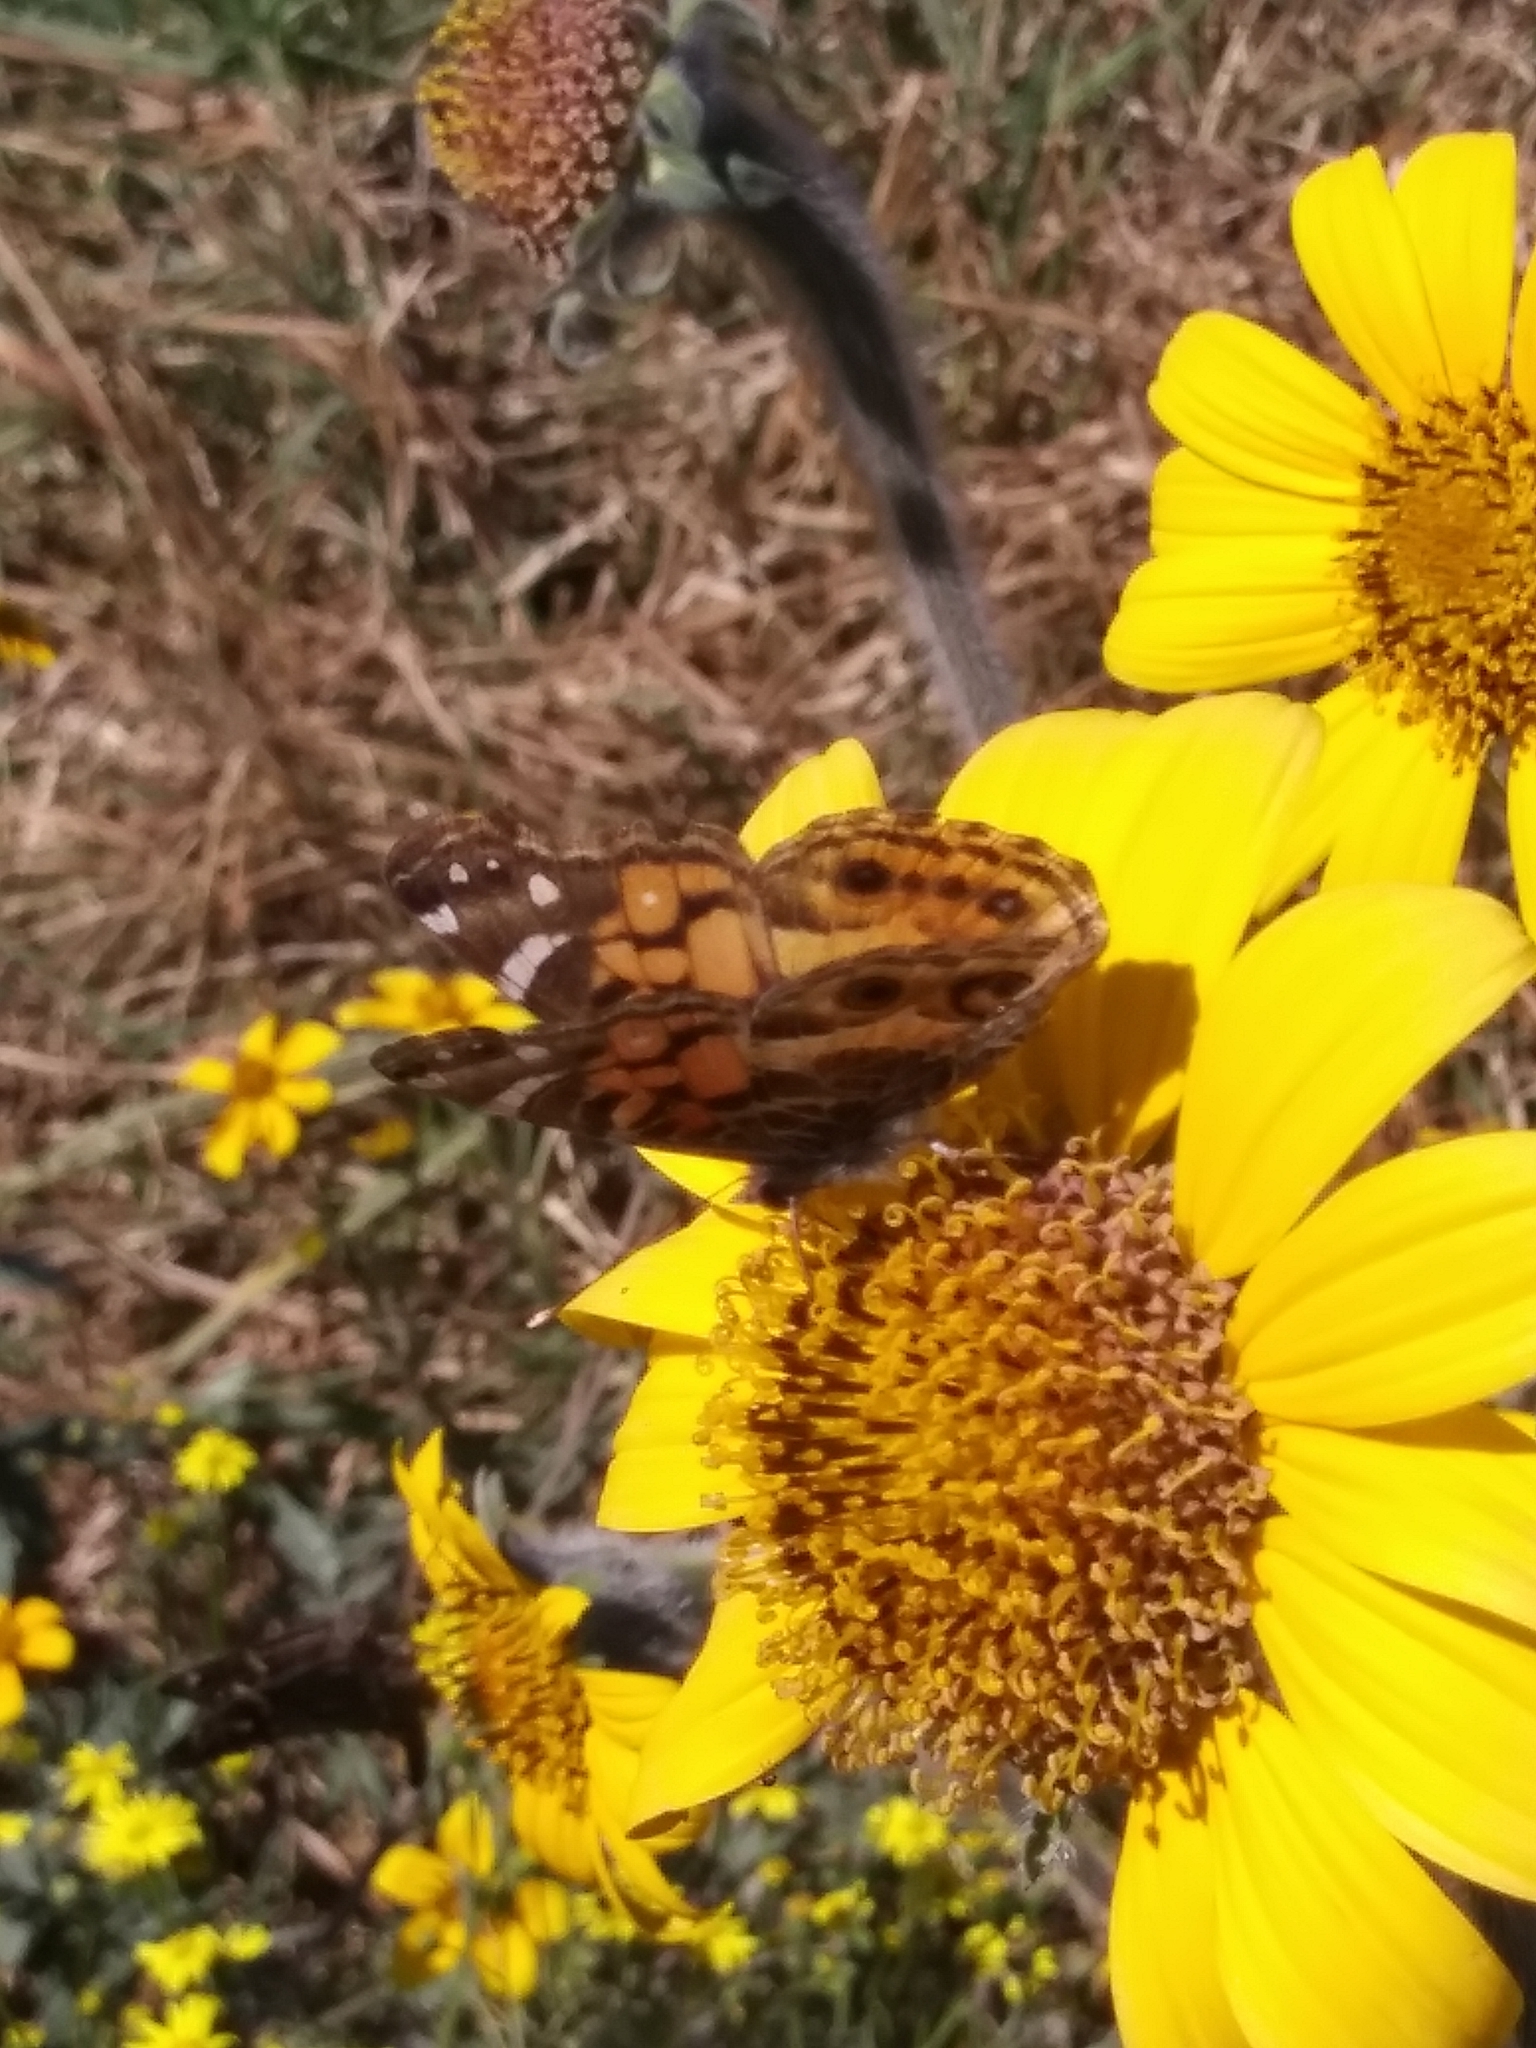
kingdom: Animalia
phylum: Arthropoda
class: Insecta
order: Lepidoptera
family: Nymphalidae
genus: Vanessa
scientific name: Vanessa virginiensis
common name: American lady
